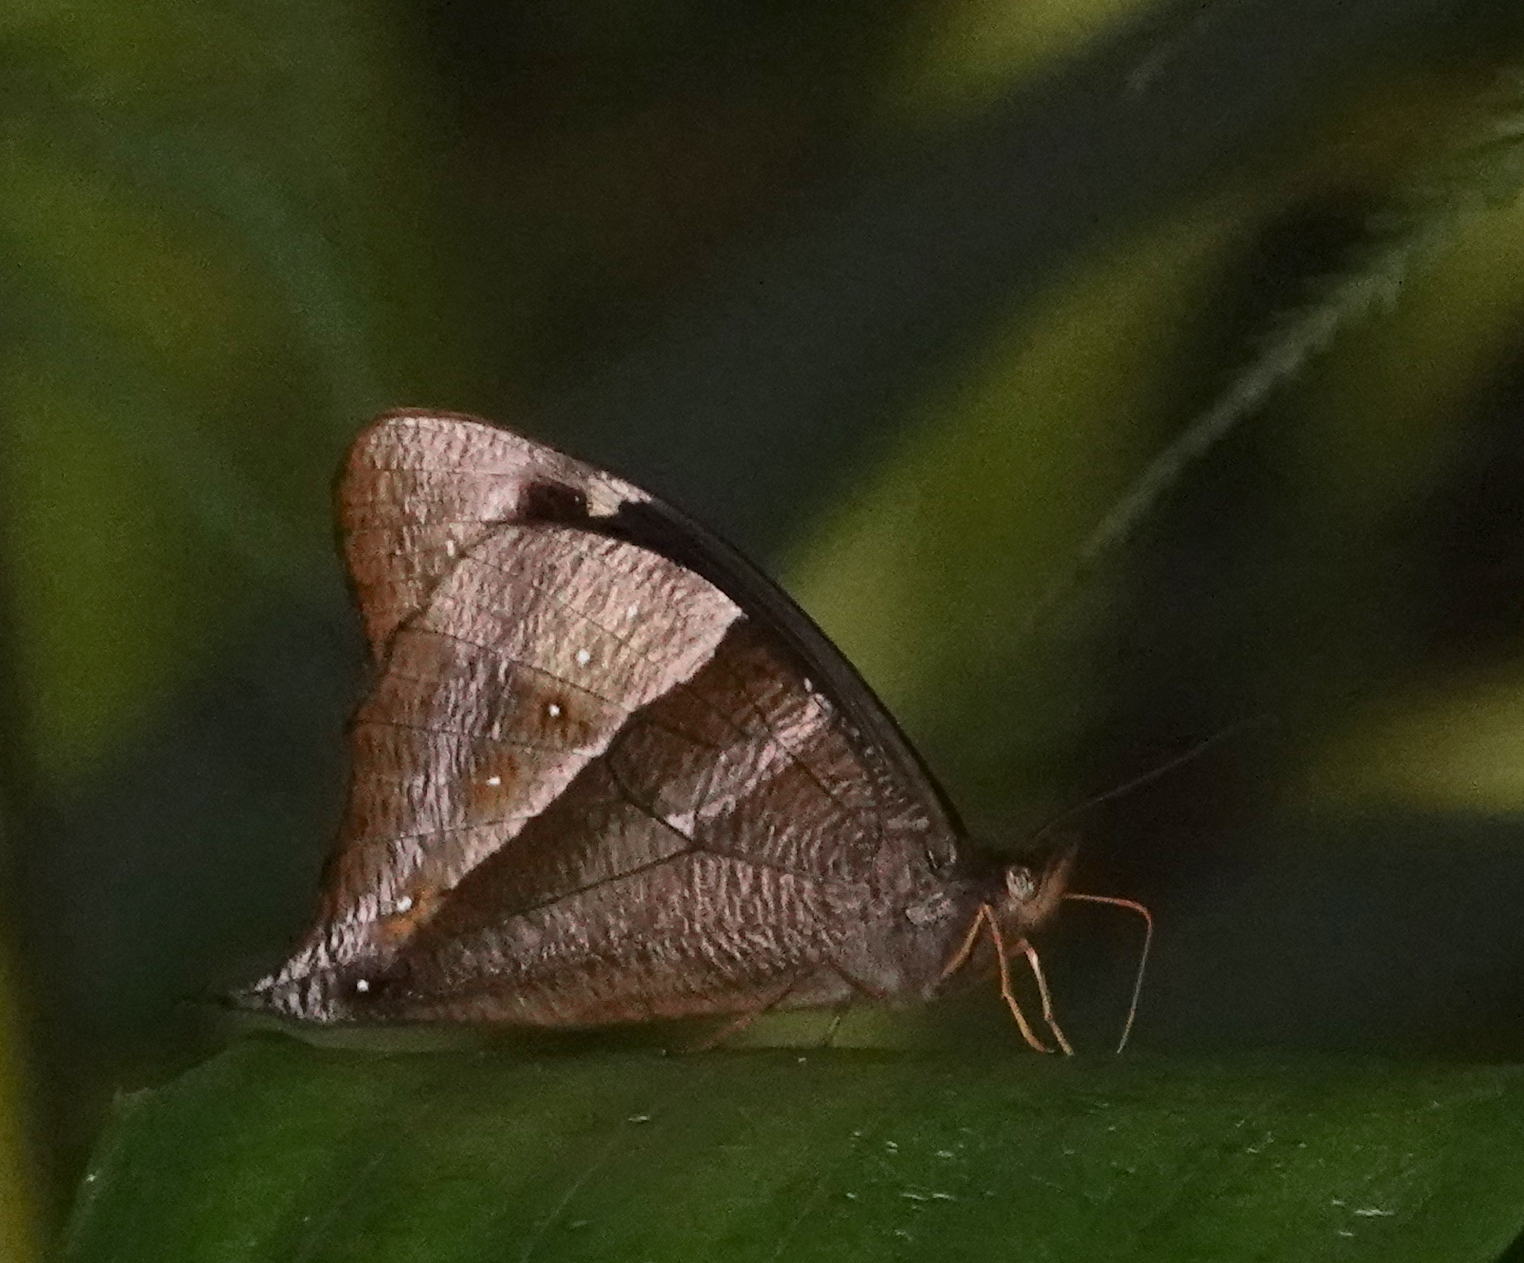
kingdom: Animalia
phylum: Arthropoda
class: Insecta
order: Lepidoptera
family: Nymphalidae
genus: Corades
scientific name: Corades pannonia
